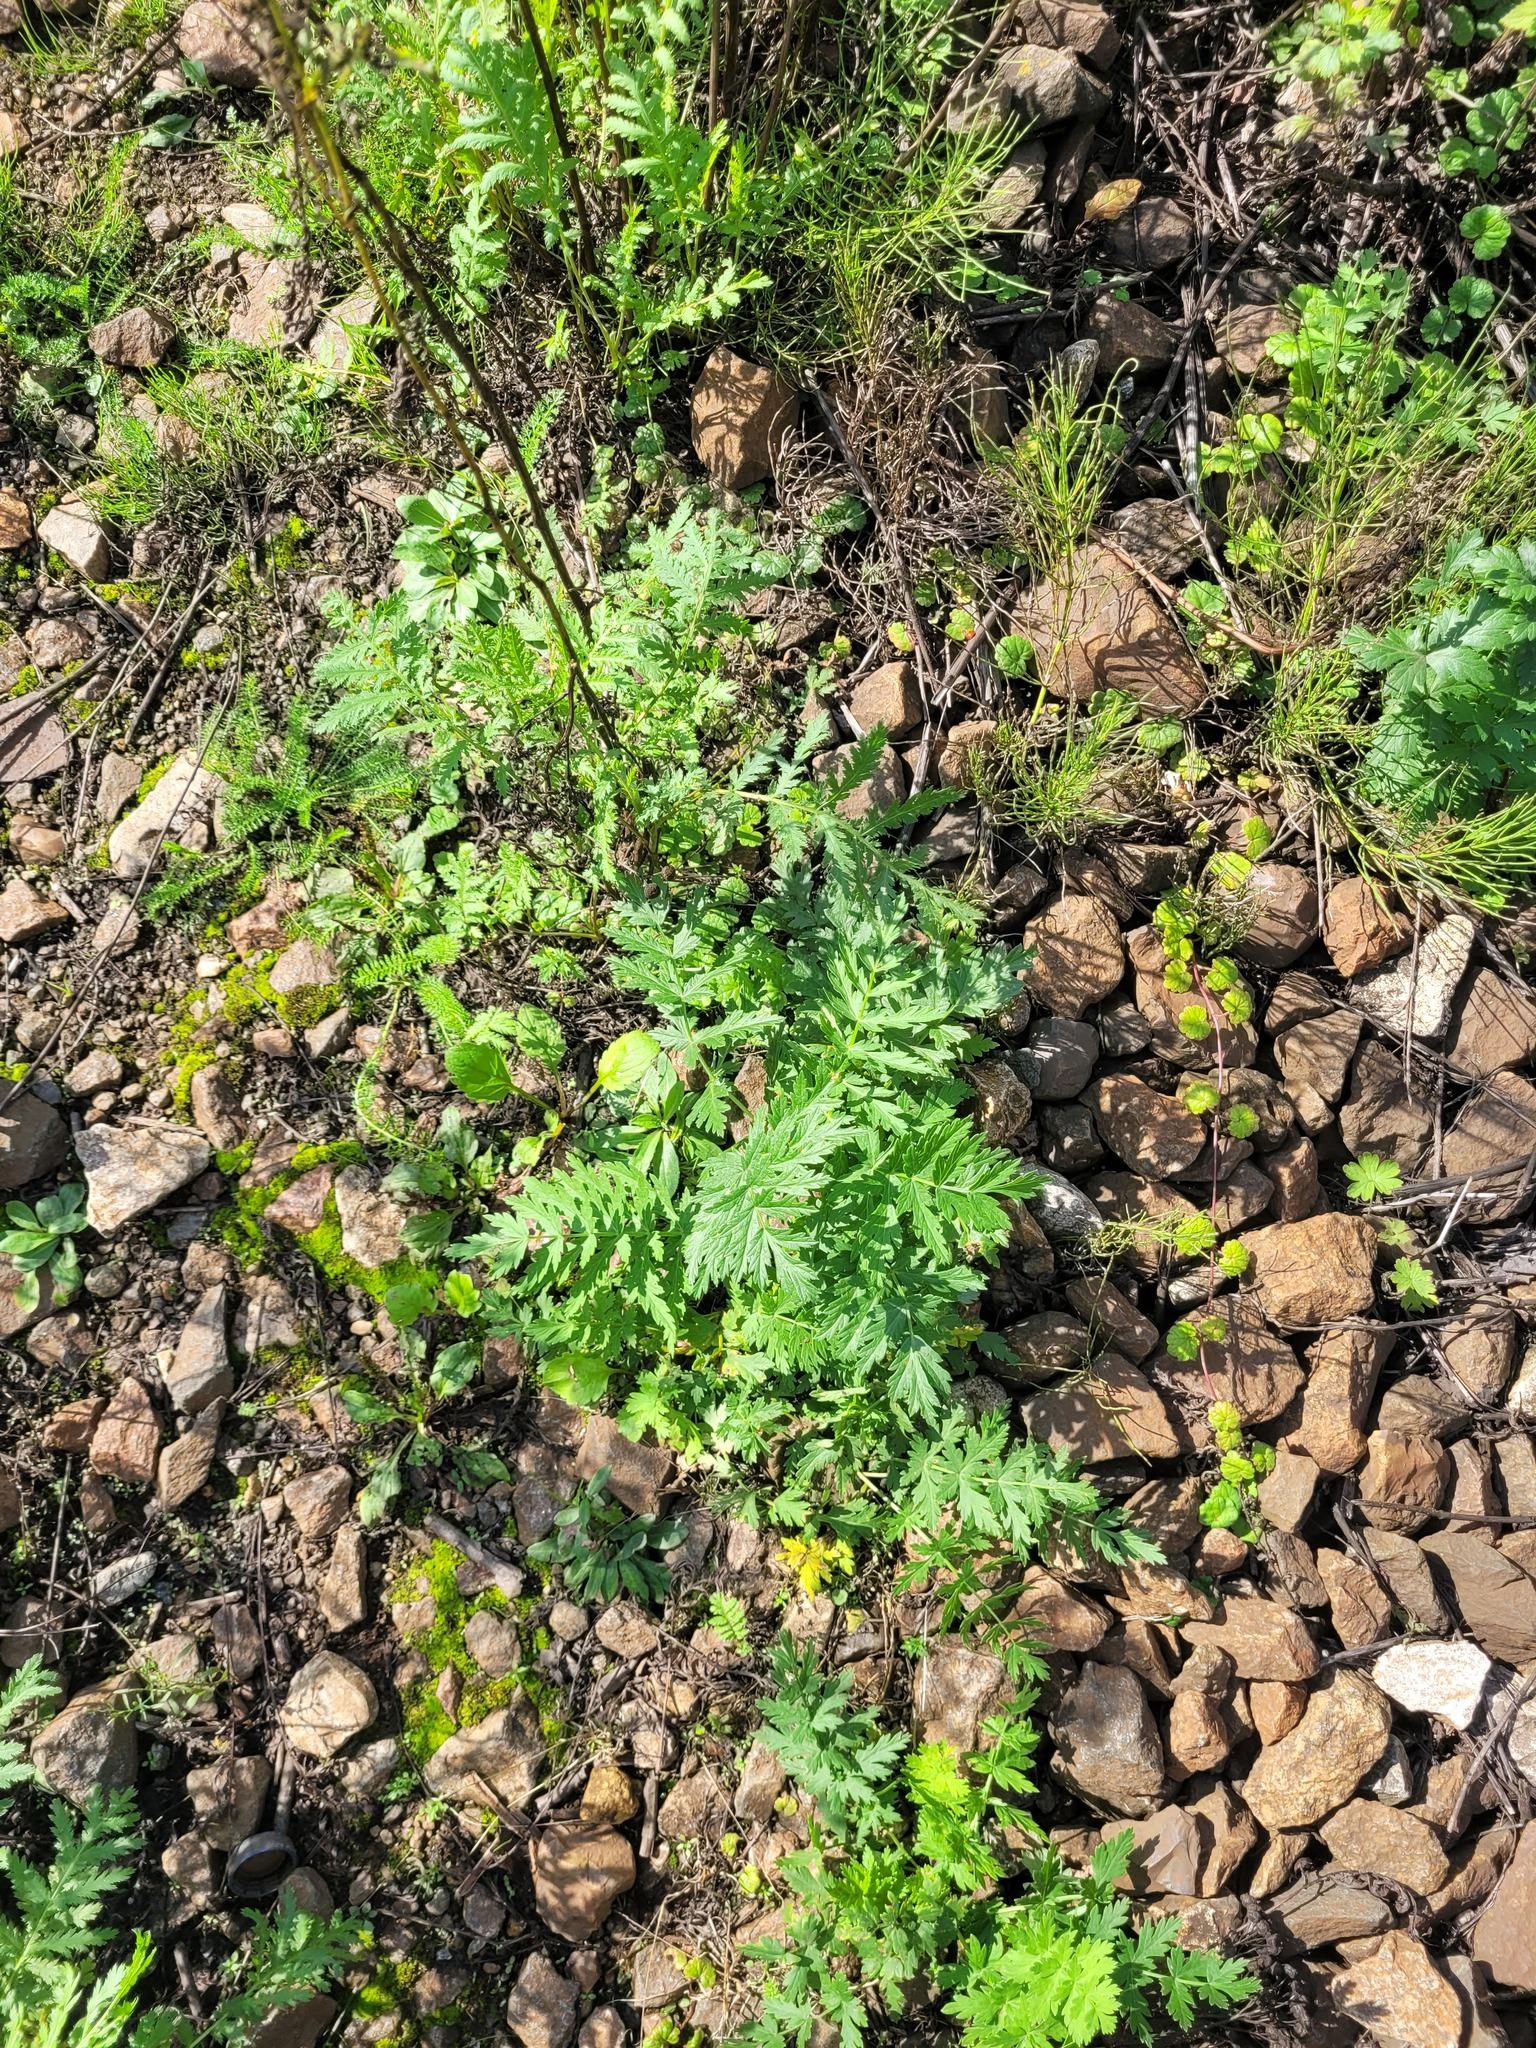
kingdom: Plantae
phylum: Tracheophyta
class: Magnoliopsida
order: Apiales
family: Apiaceae
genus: Seseli
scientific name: Seseli libanotis
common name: Mooncarrot
